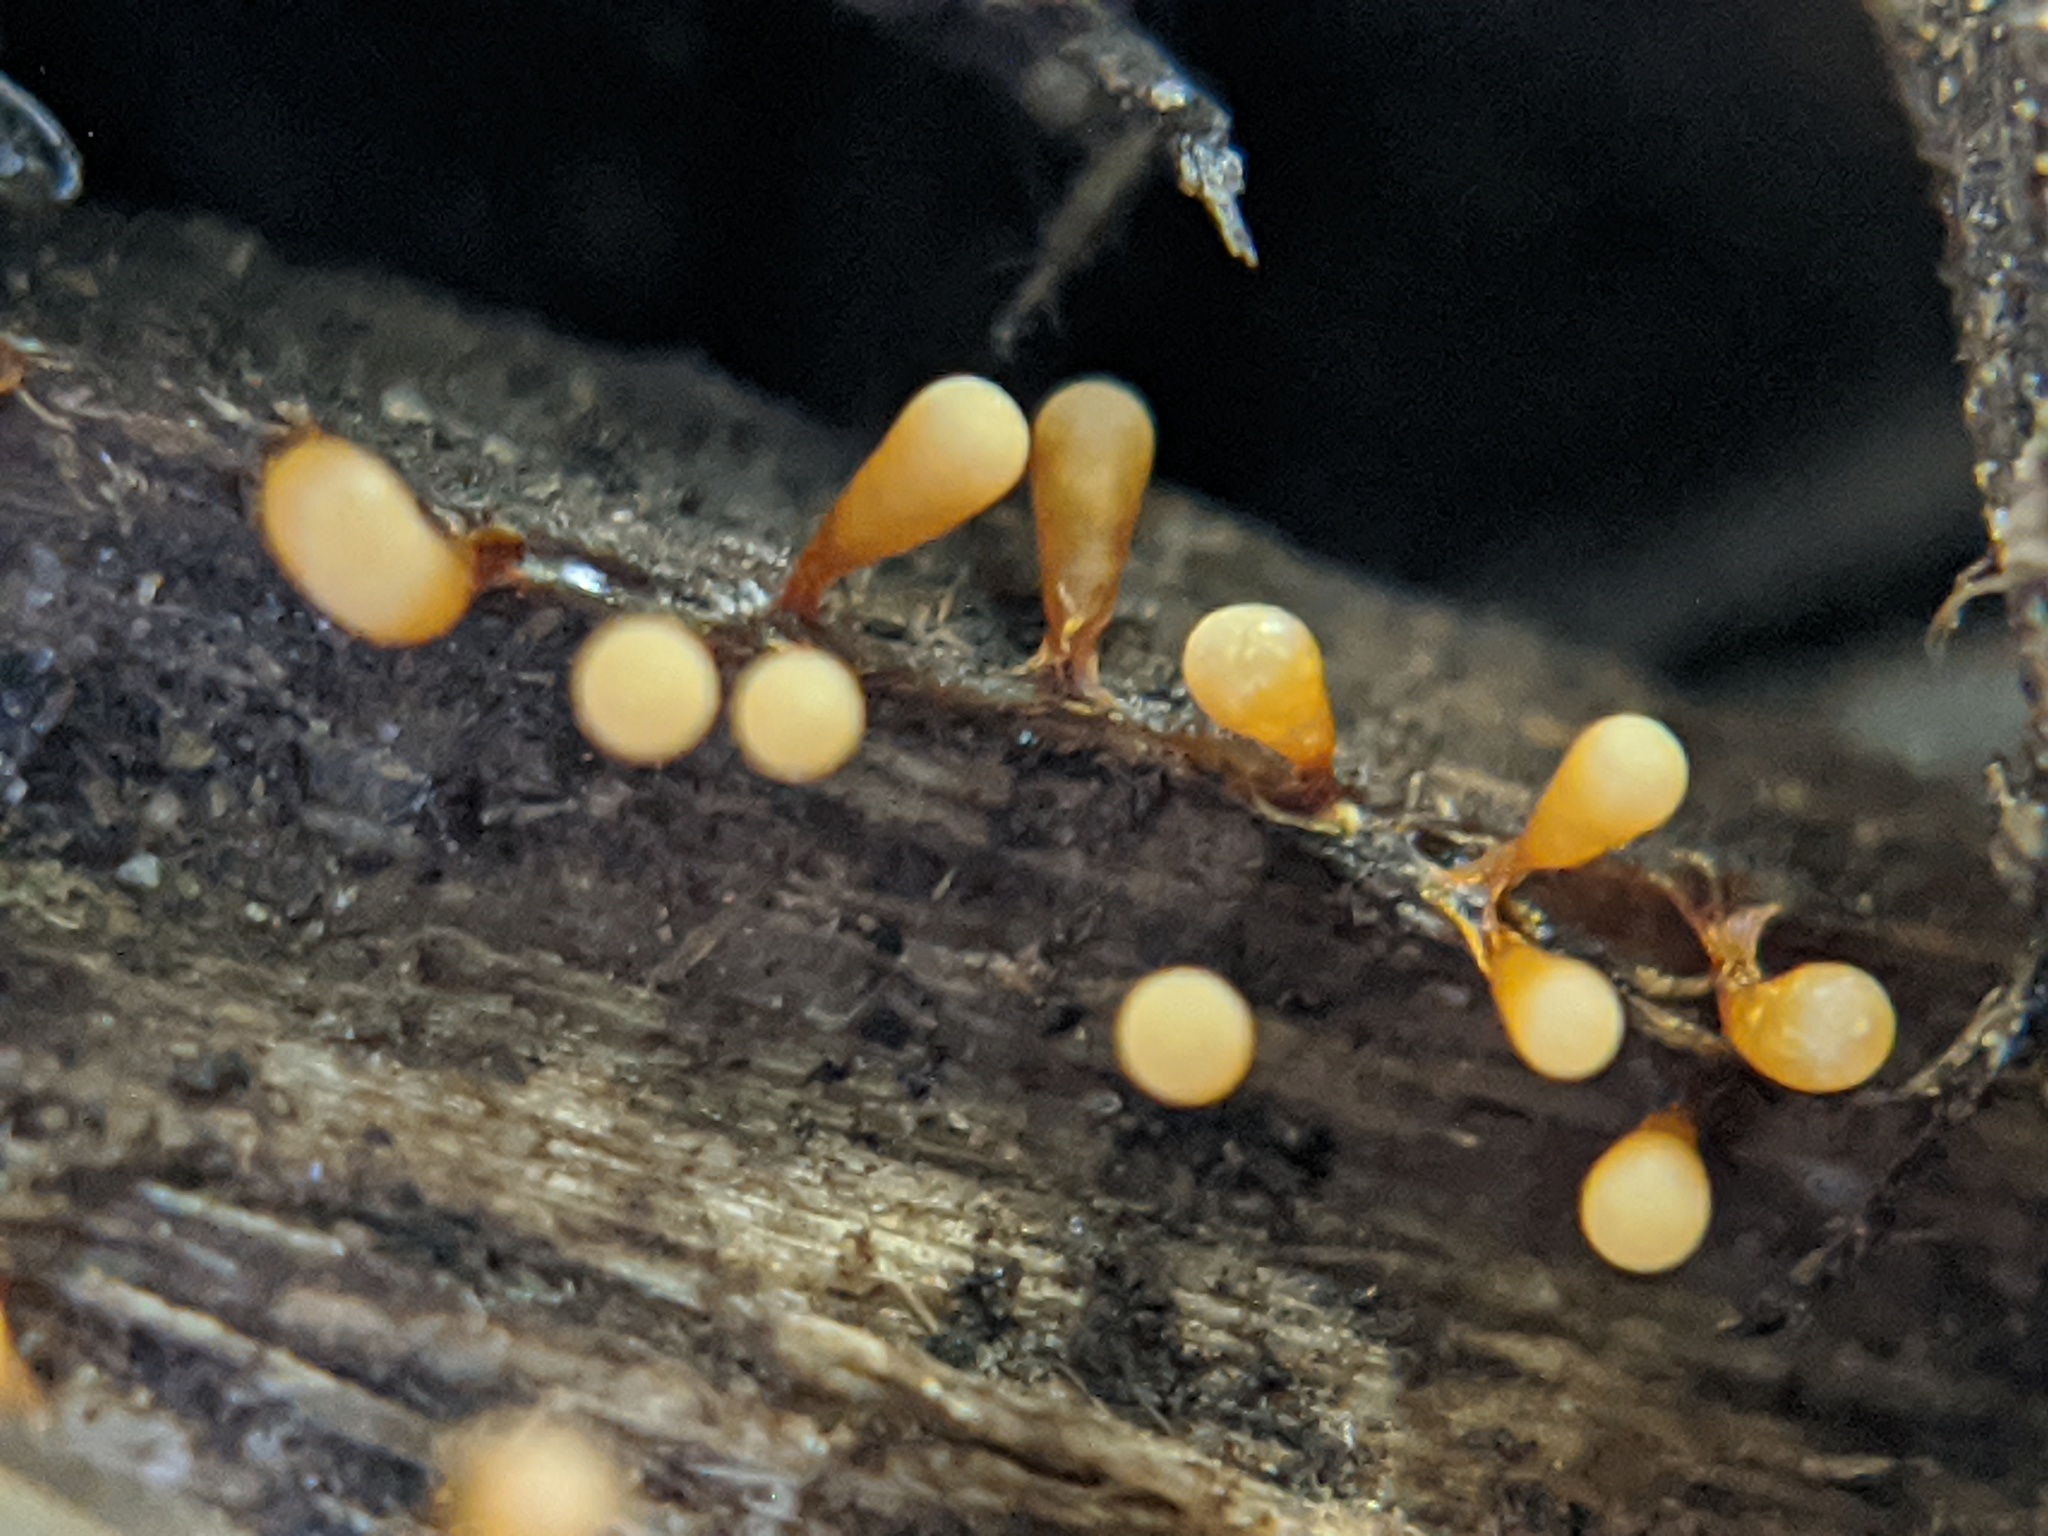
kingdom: Protozoa
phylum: Mycetozoa
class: Myxomycetes
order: Physarales
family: Physaraceae
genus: Craterium
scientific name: Craterium leucocephalum
